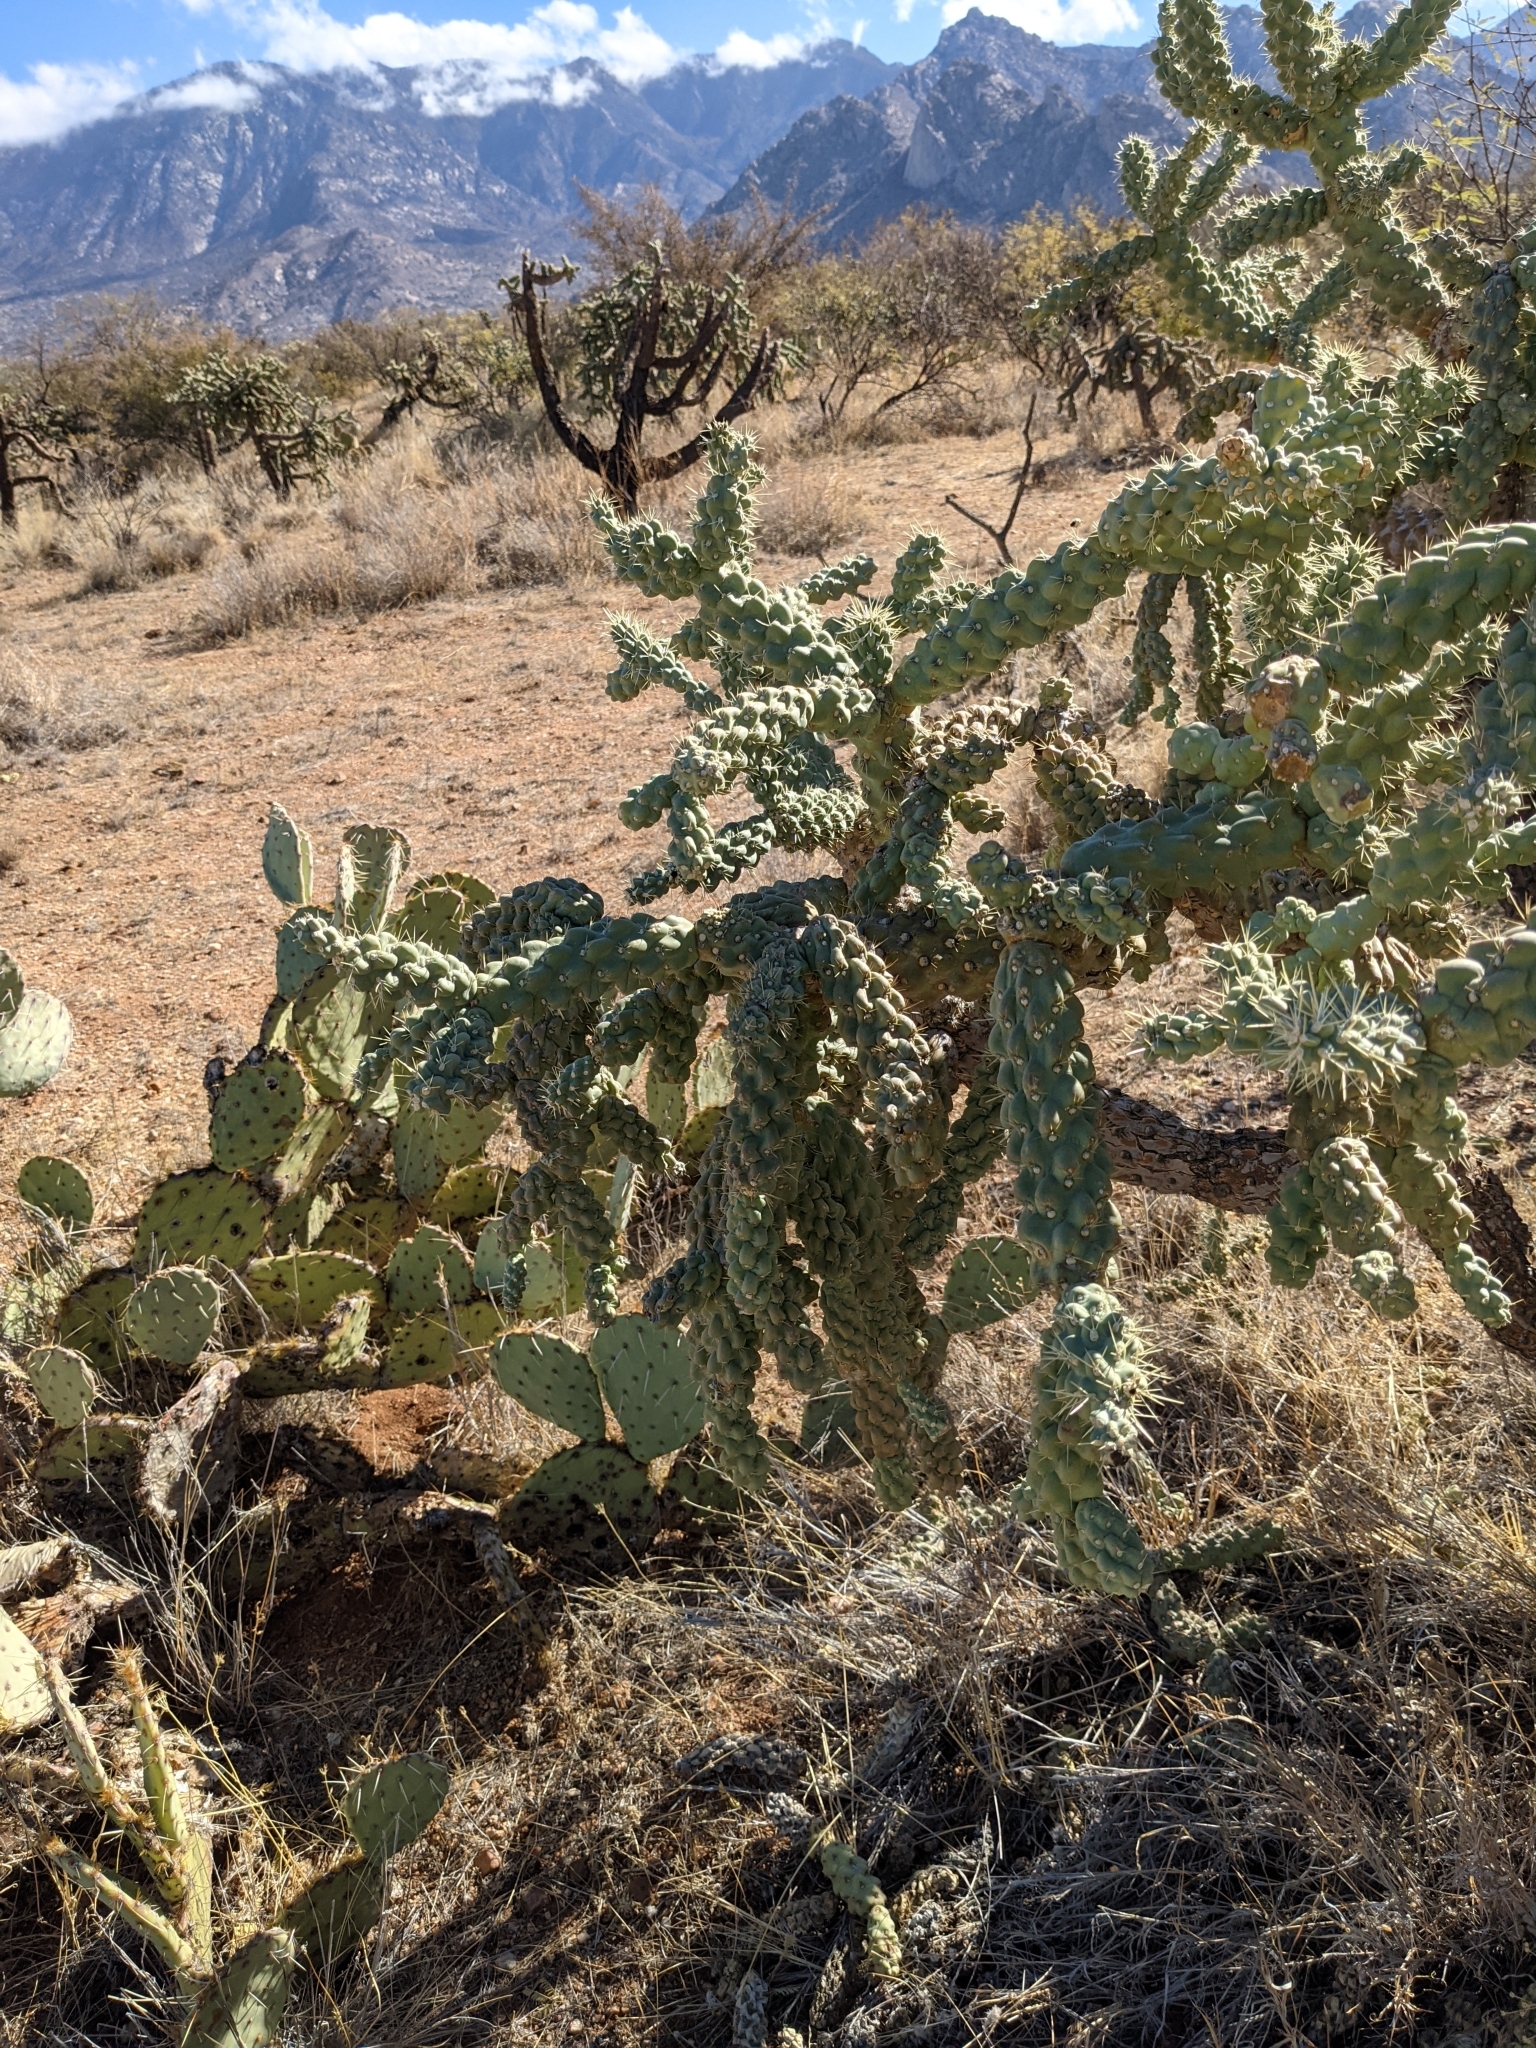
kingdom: Plantae
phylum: Tracheophyta
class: Magnoliopsida
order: Caryophyllales
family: Cactaceae
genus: Cylindropuntia
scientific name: Cylindropuntia fulgida
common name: Jumping cholla
